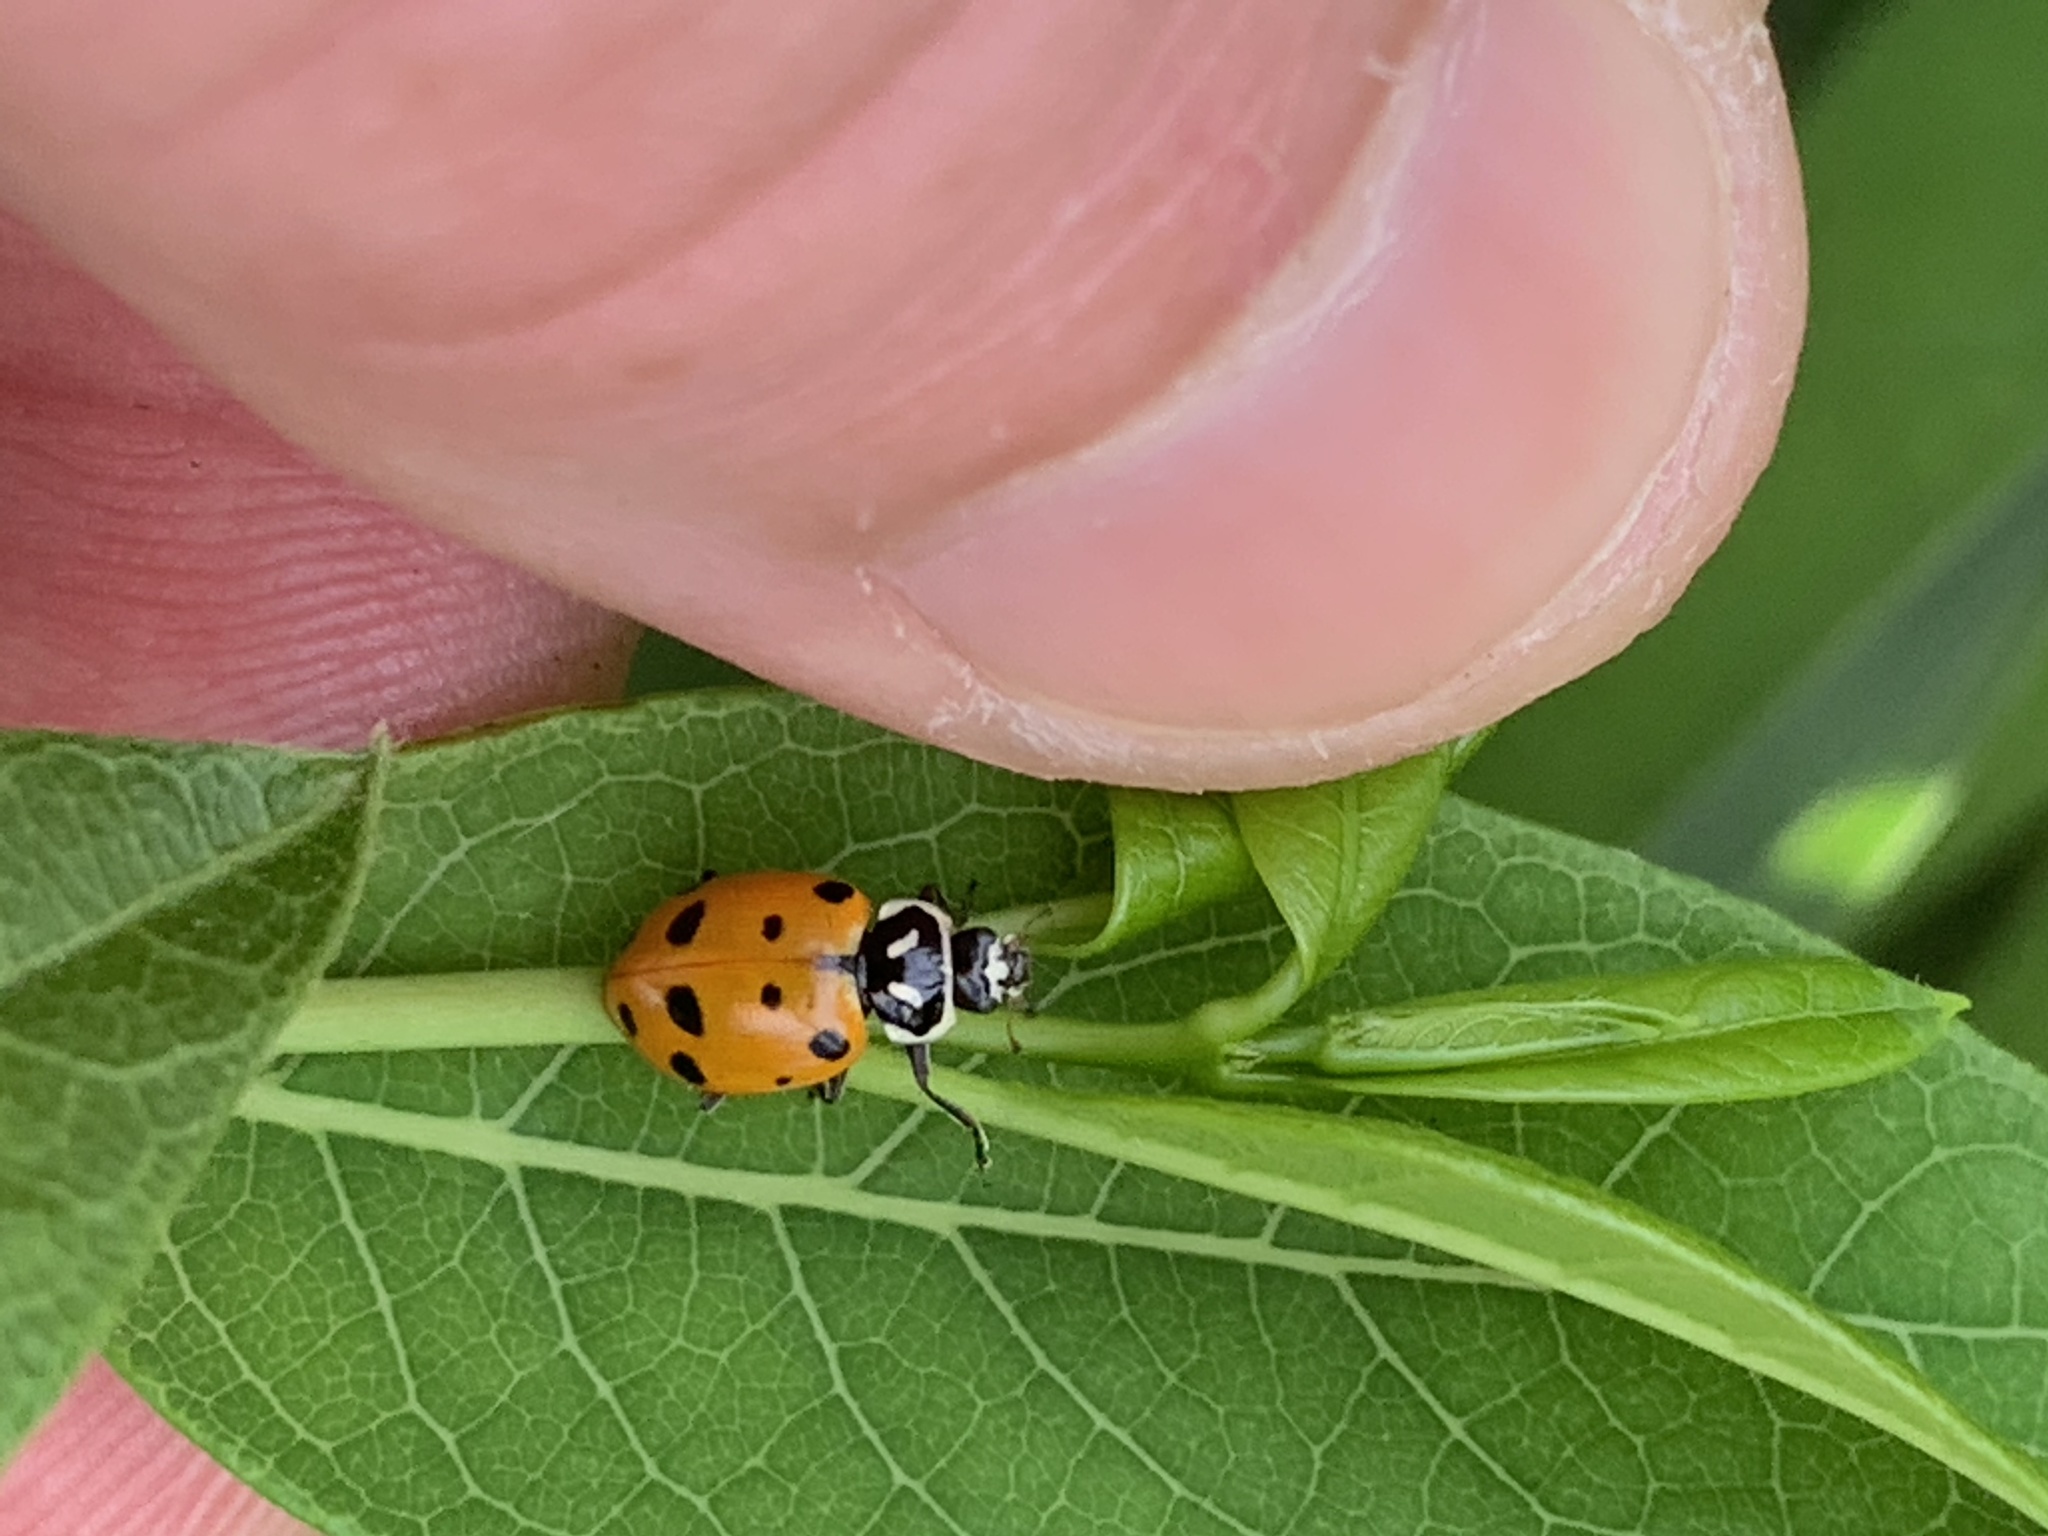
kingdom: Animalia
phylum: Arthropoda
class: Insecta
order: Coleoptera
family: Coccinellidae
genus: Hippodamia
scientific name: Hippodamia convergens
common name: Convergent lady beetle
